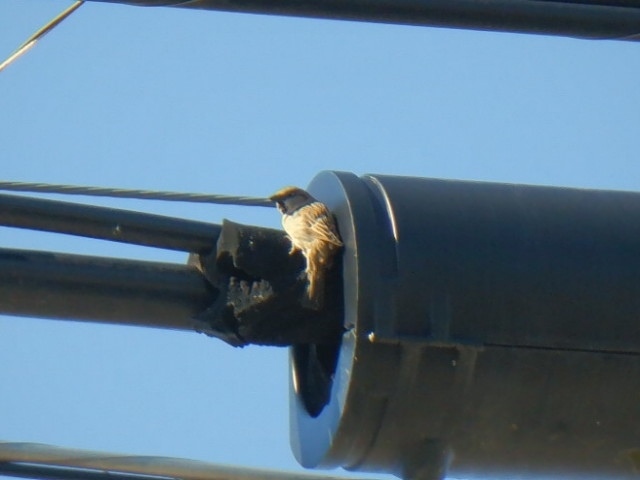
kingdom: Animalia
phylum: Chordata
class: Aves
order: Passeriformes
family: Passeridae
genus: Passer
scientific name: Passer domesticus
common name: House sparrow
